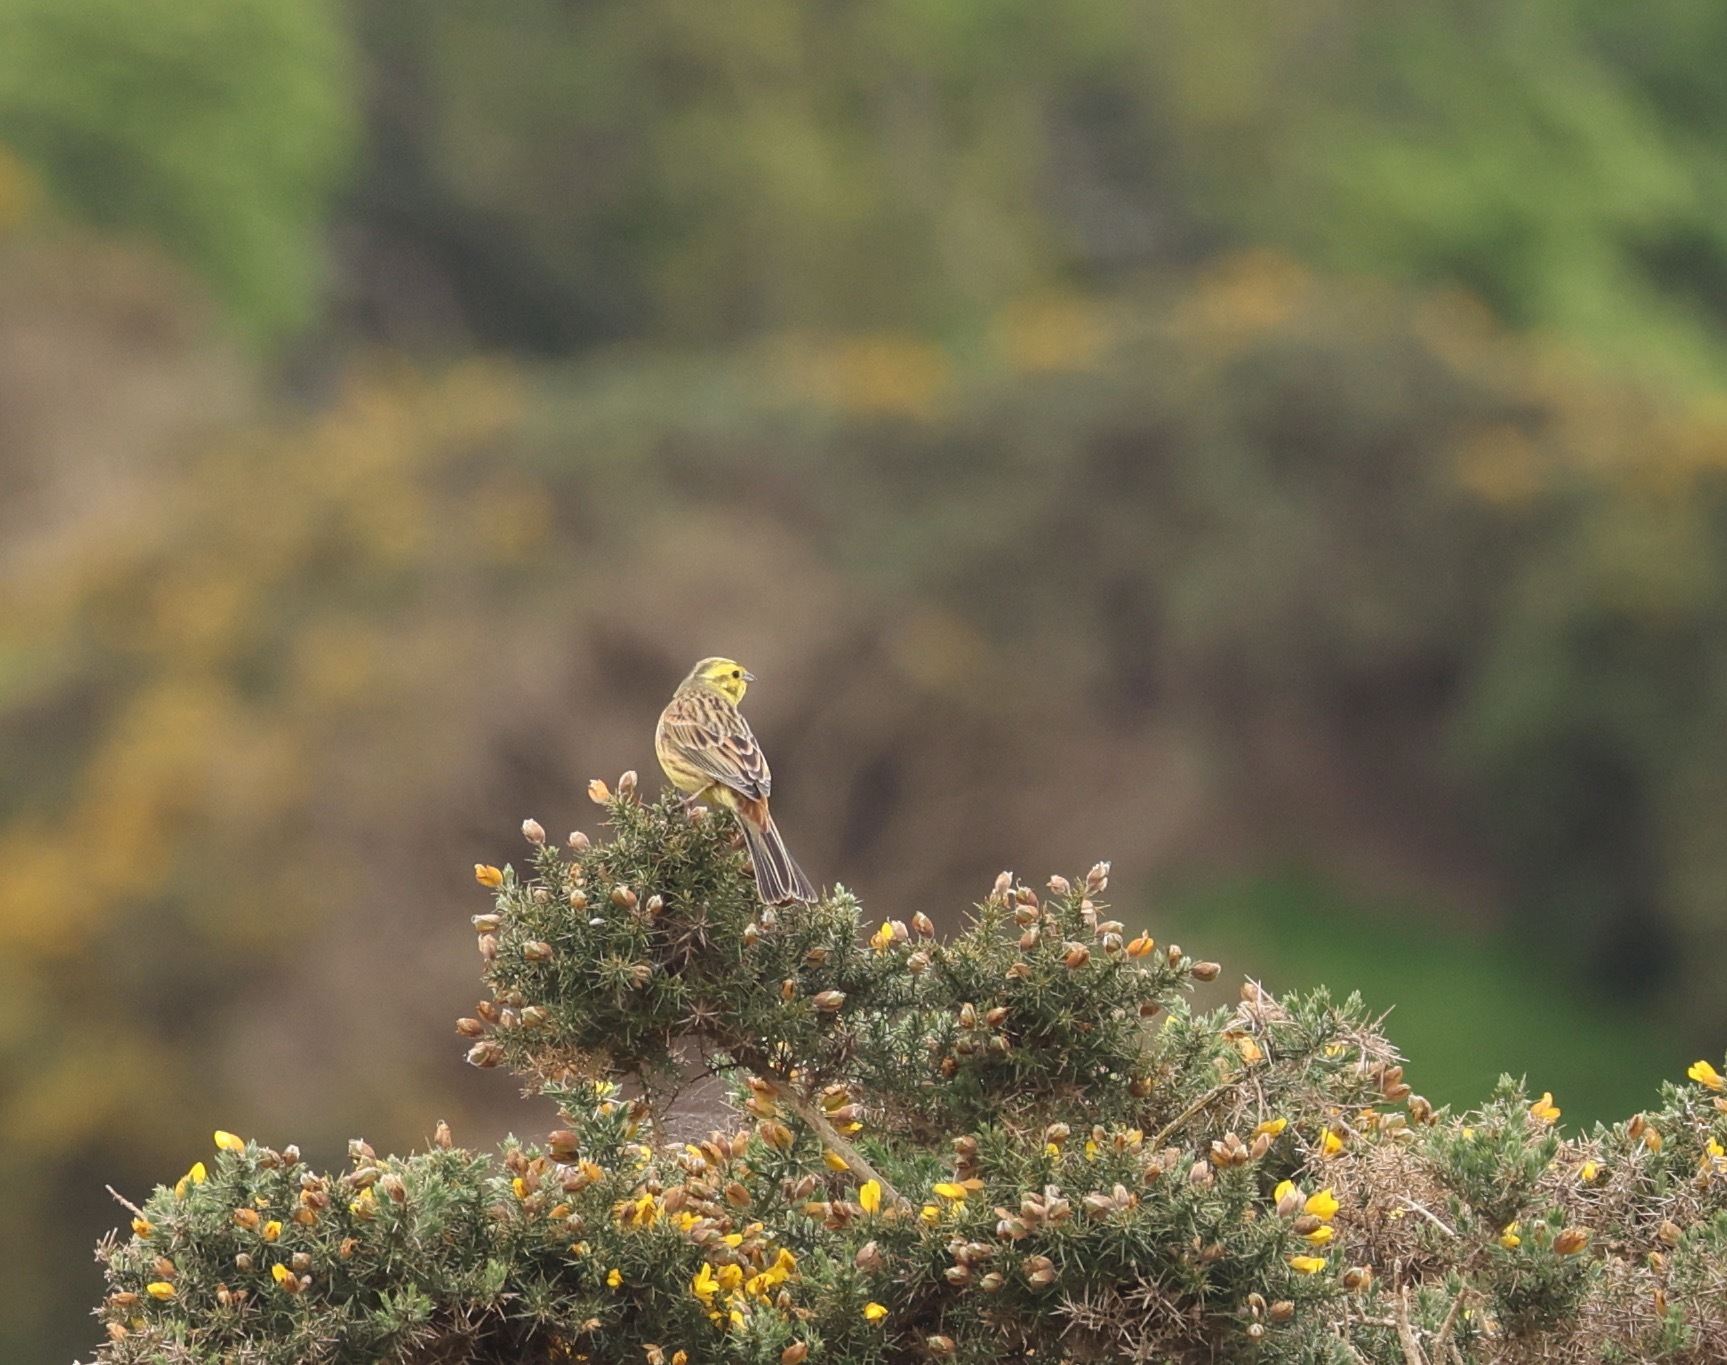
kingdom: Animalia
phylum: Chordata
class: Aves
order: Passeriformes
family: Emberizidae
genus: Emberiza
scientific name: Emberiza citrinella
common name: Yellowhammer
